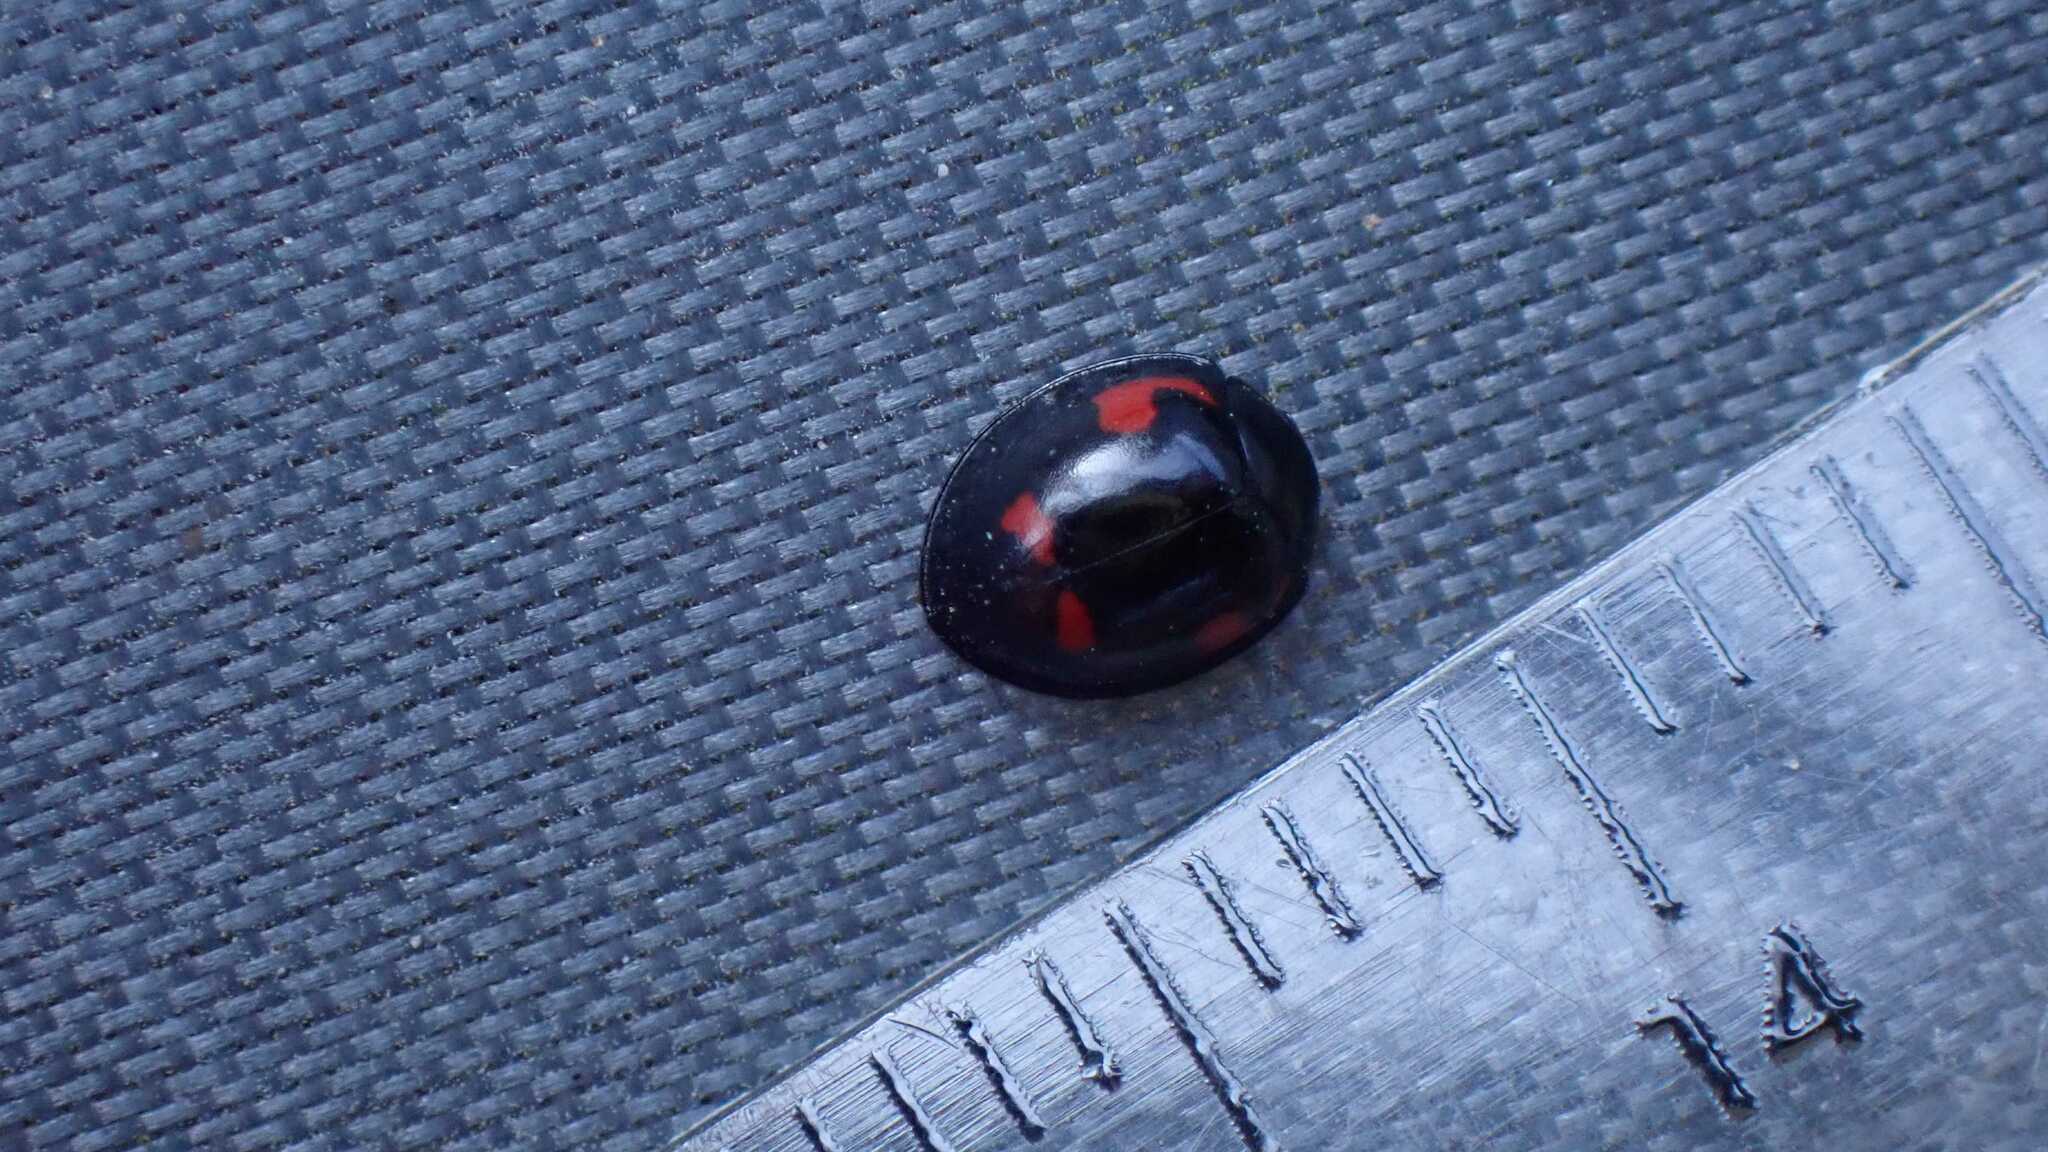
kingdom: Animalia
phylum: Arthropoda
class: Insecta
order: Coleoptera
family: Coccinellidae
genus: Brumus
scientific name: Brumus quadripustulatus
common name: Ladybird beetle
